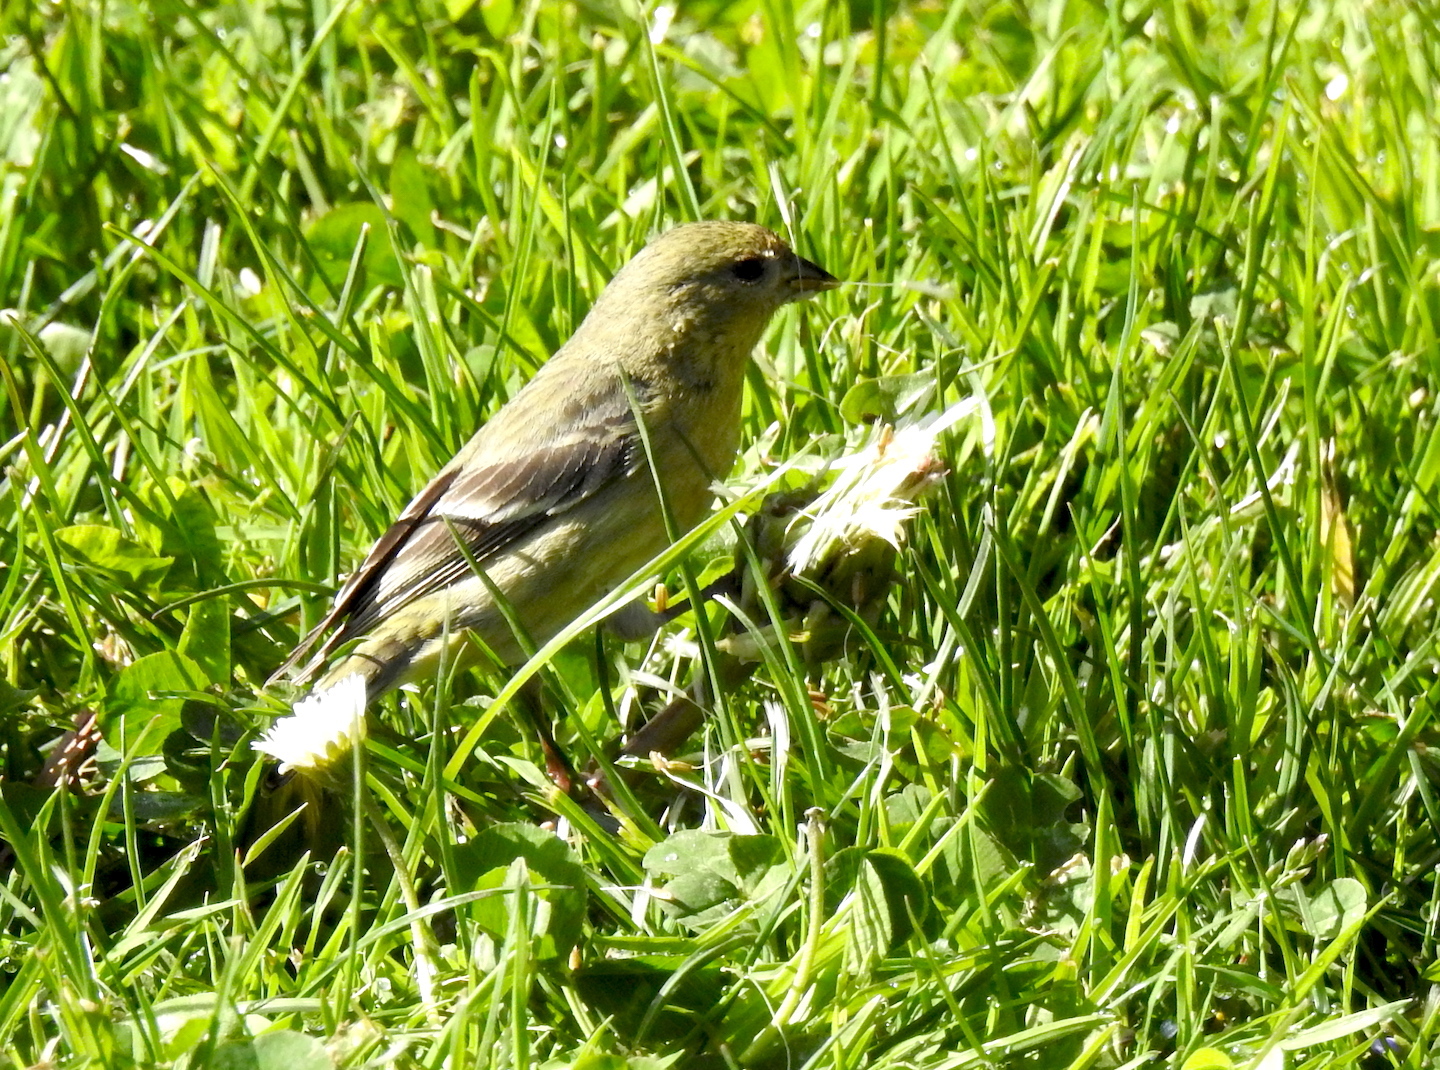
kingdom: Animalia
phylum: Chordata
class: Aves
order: Passeriformes
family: Fringillidae
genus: Spinus
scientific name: Spinus psaltria
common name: Lesser goldfinch
